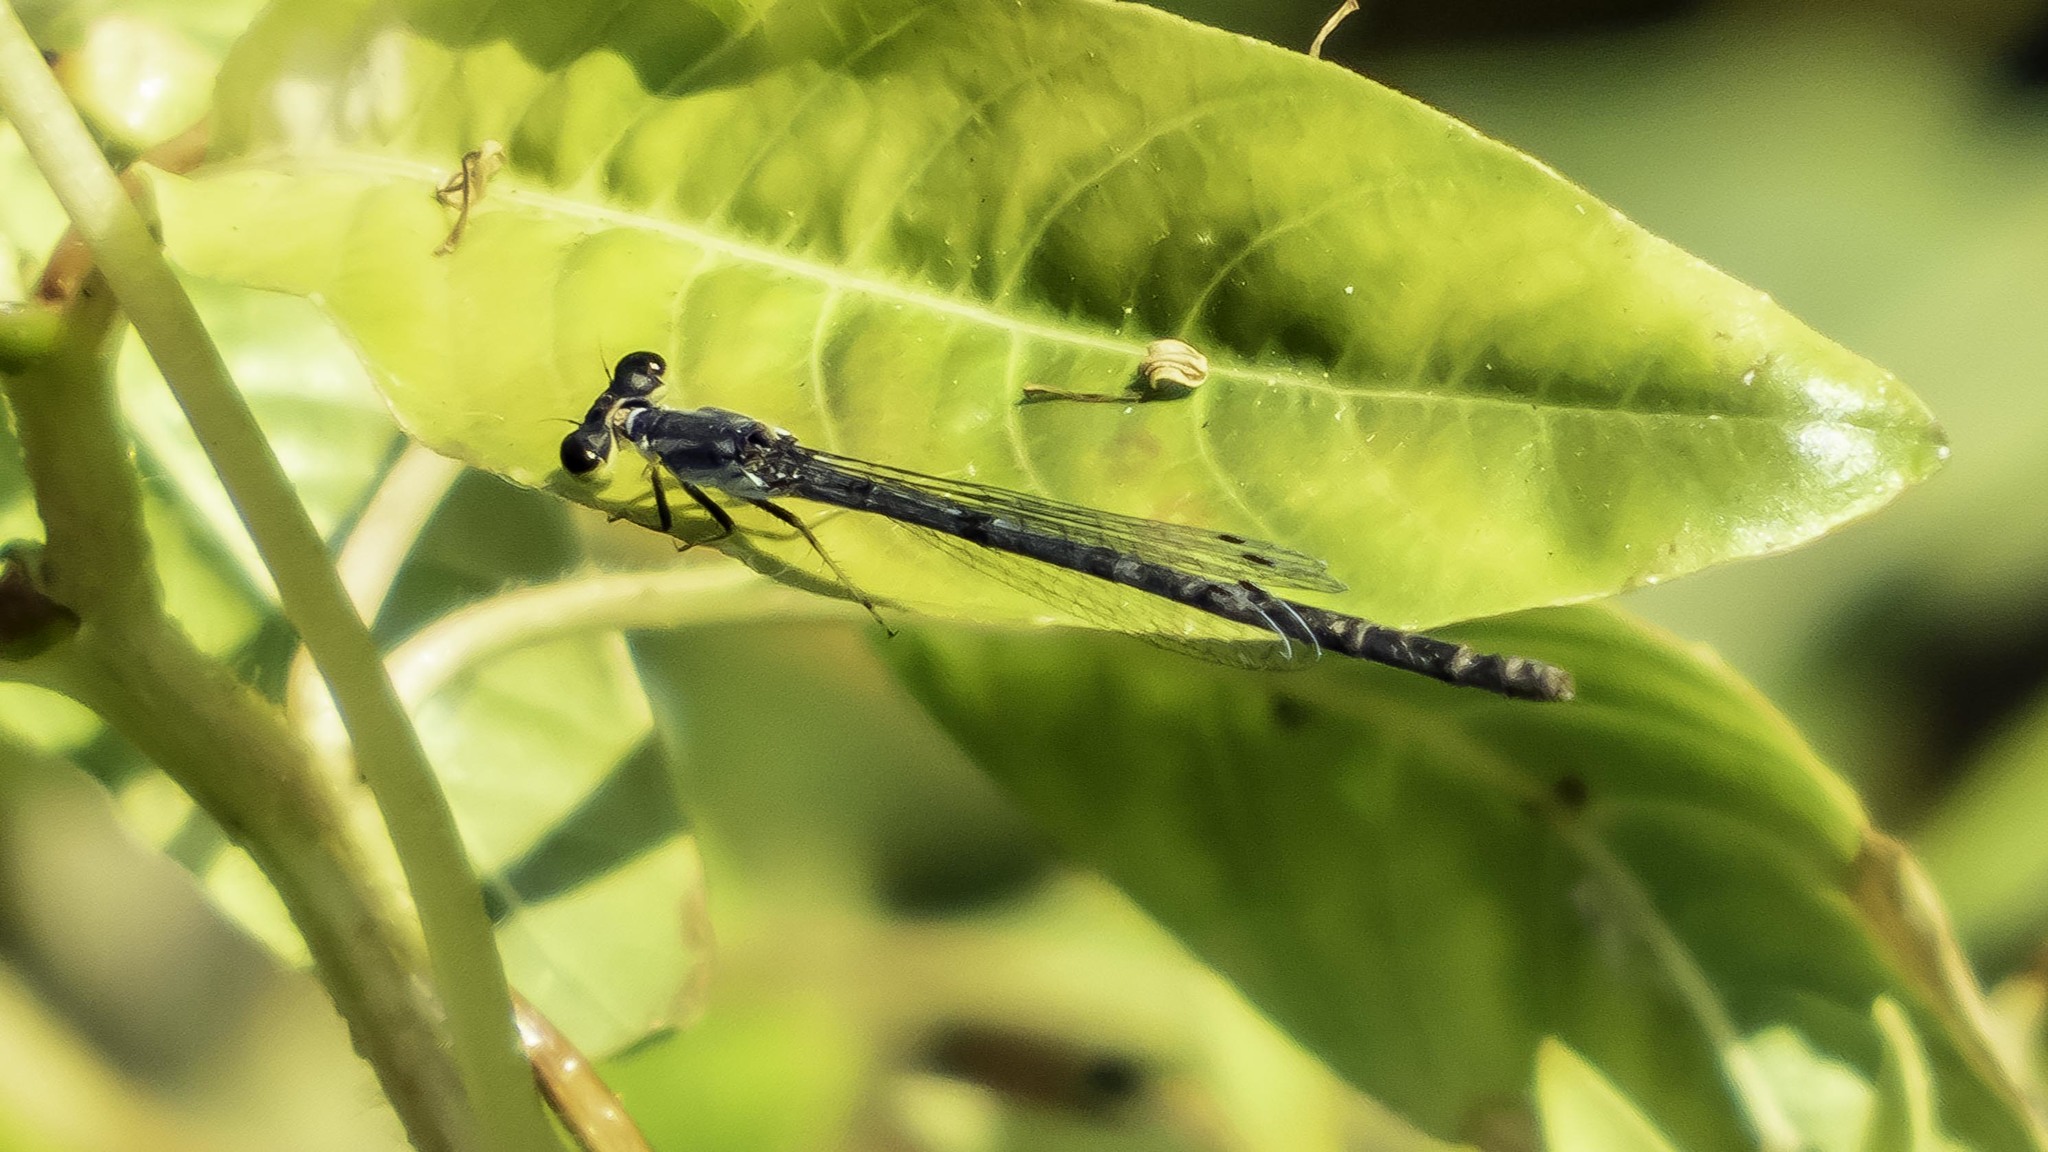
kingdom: Animalia
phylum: Arthropoda
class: Insecta
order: Odonata
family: Coenagrionidae
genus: Ischnura
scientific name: Ischnura posita
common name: Fragile forktail
